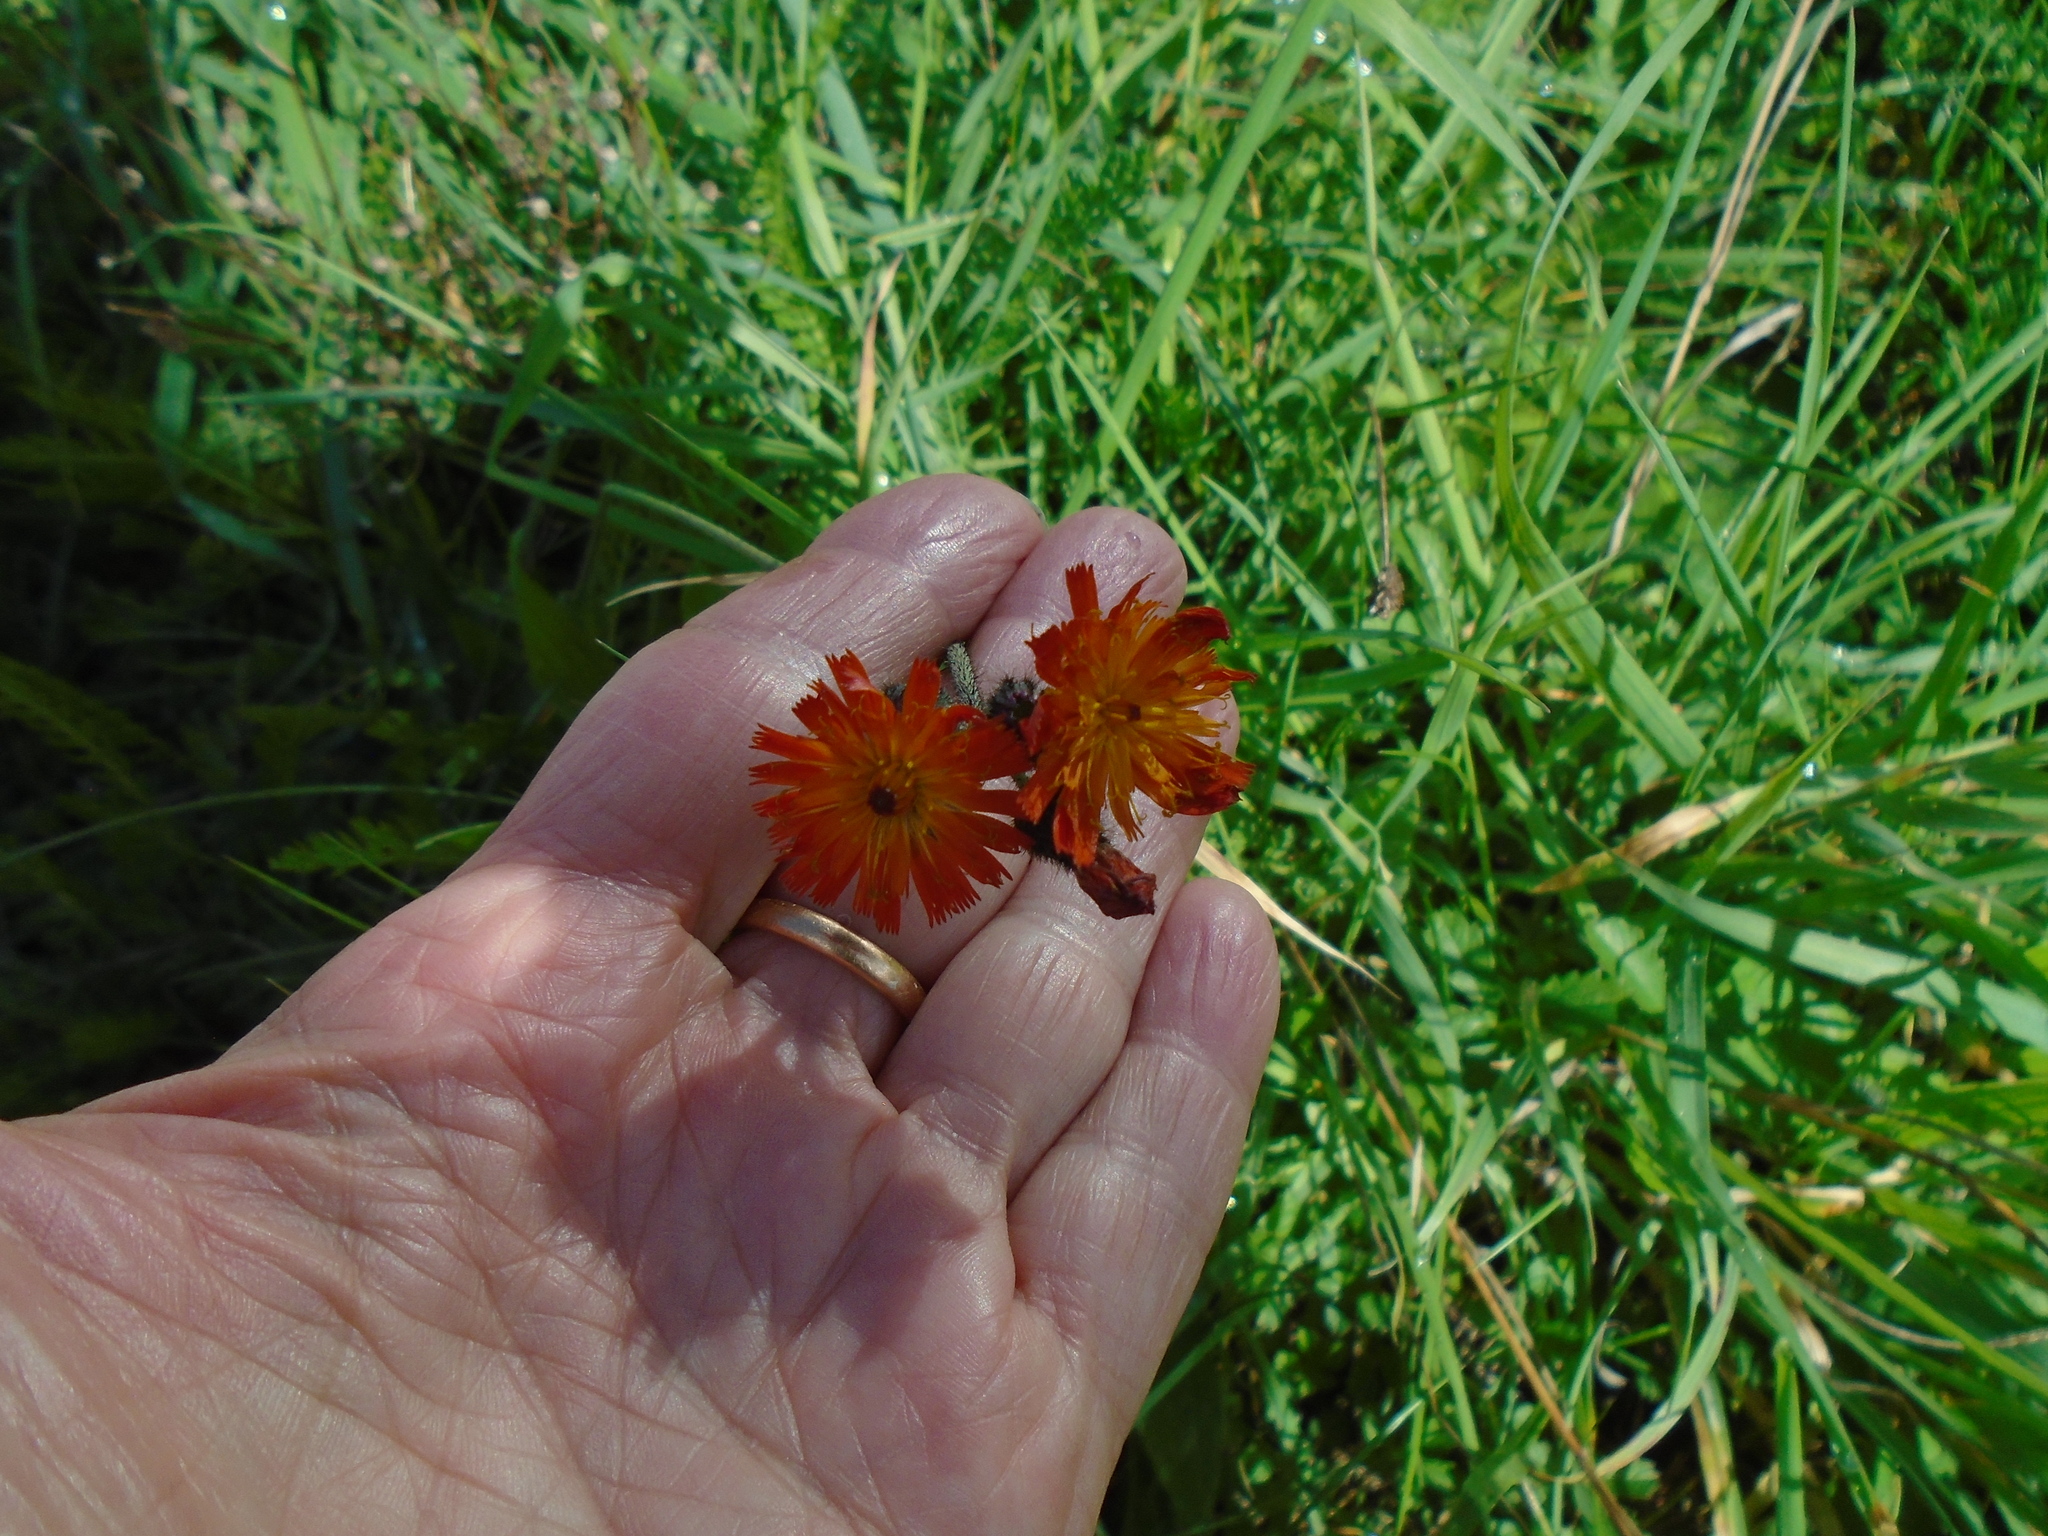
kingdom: Plantae
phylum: Tracheophyta
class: Magnoliopsida
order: Asterales
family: Asteraceae
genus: Pilosella
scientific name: Pilosella aurantiaca
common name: Fox-and-cubs
